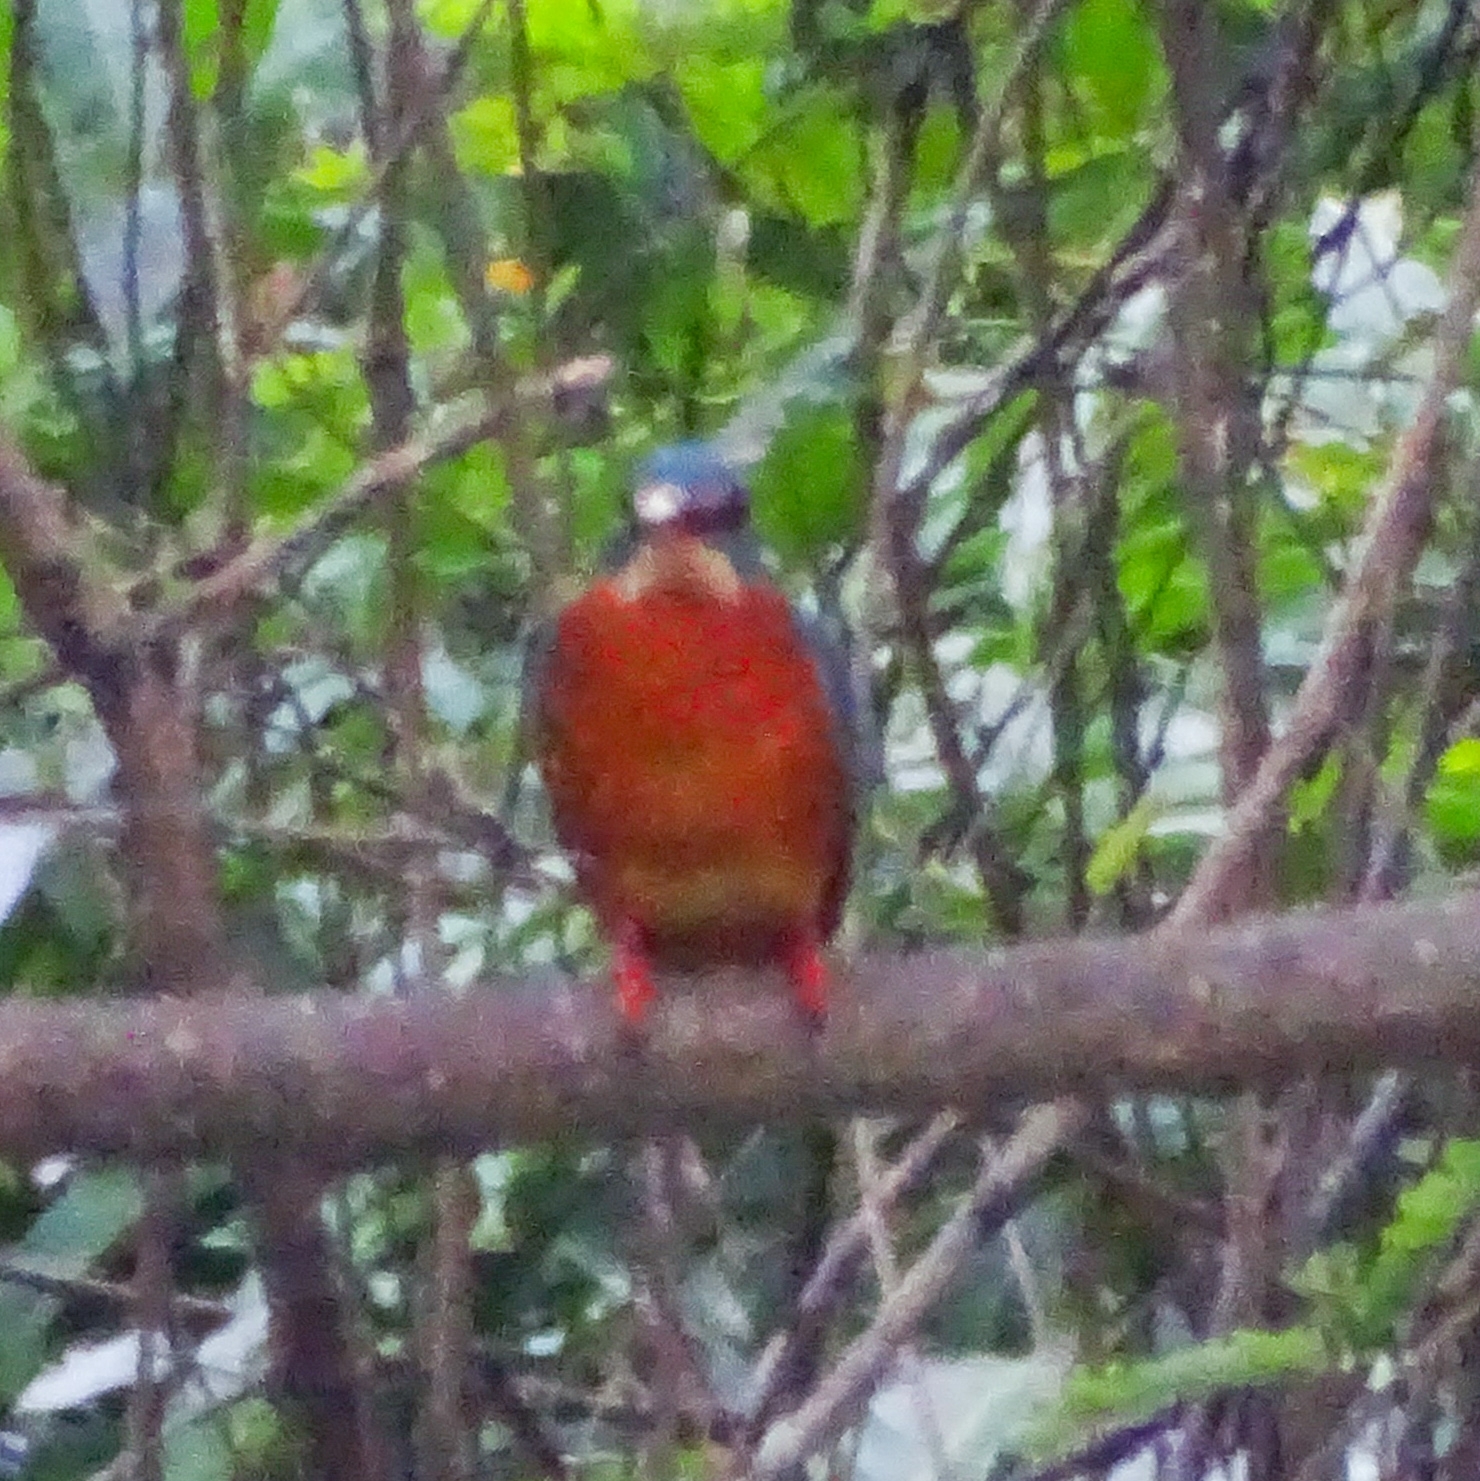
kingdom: Animalia
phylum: Chordata
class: Aves
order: Coraciiformes
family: Alcedinidae
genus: Alcedo
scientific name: Alcedo atthis
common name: Common kingfisher
